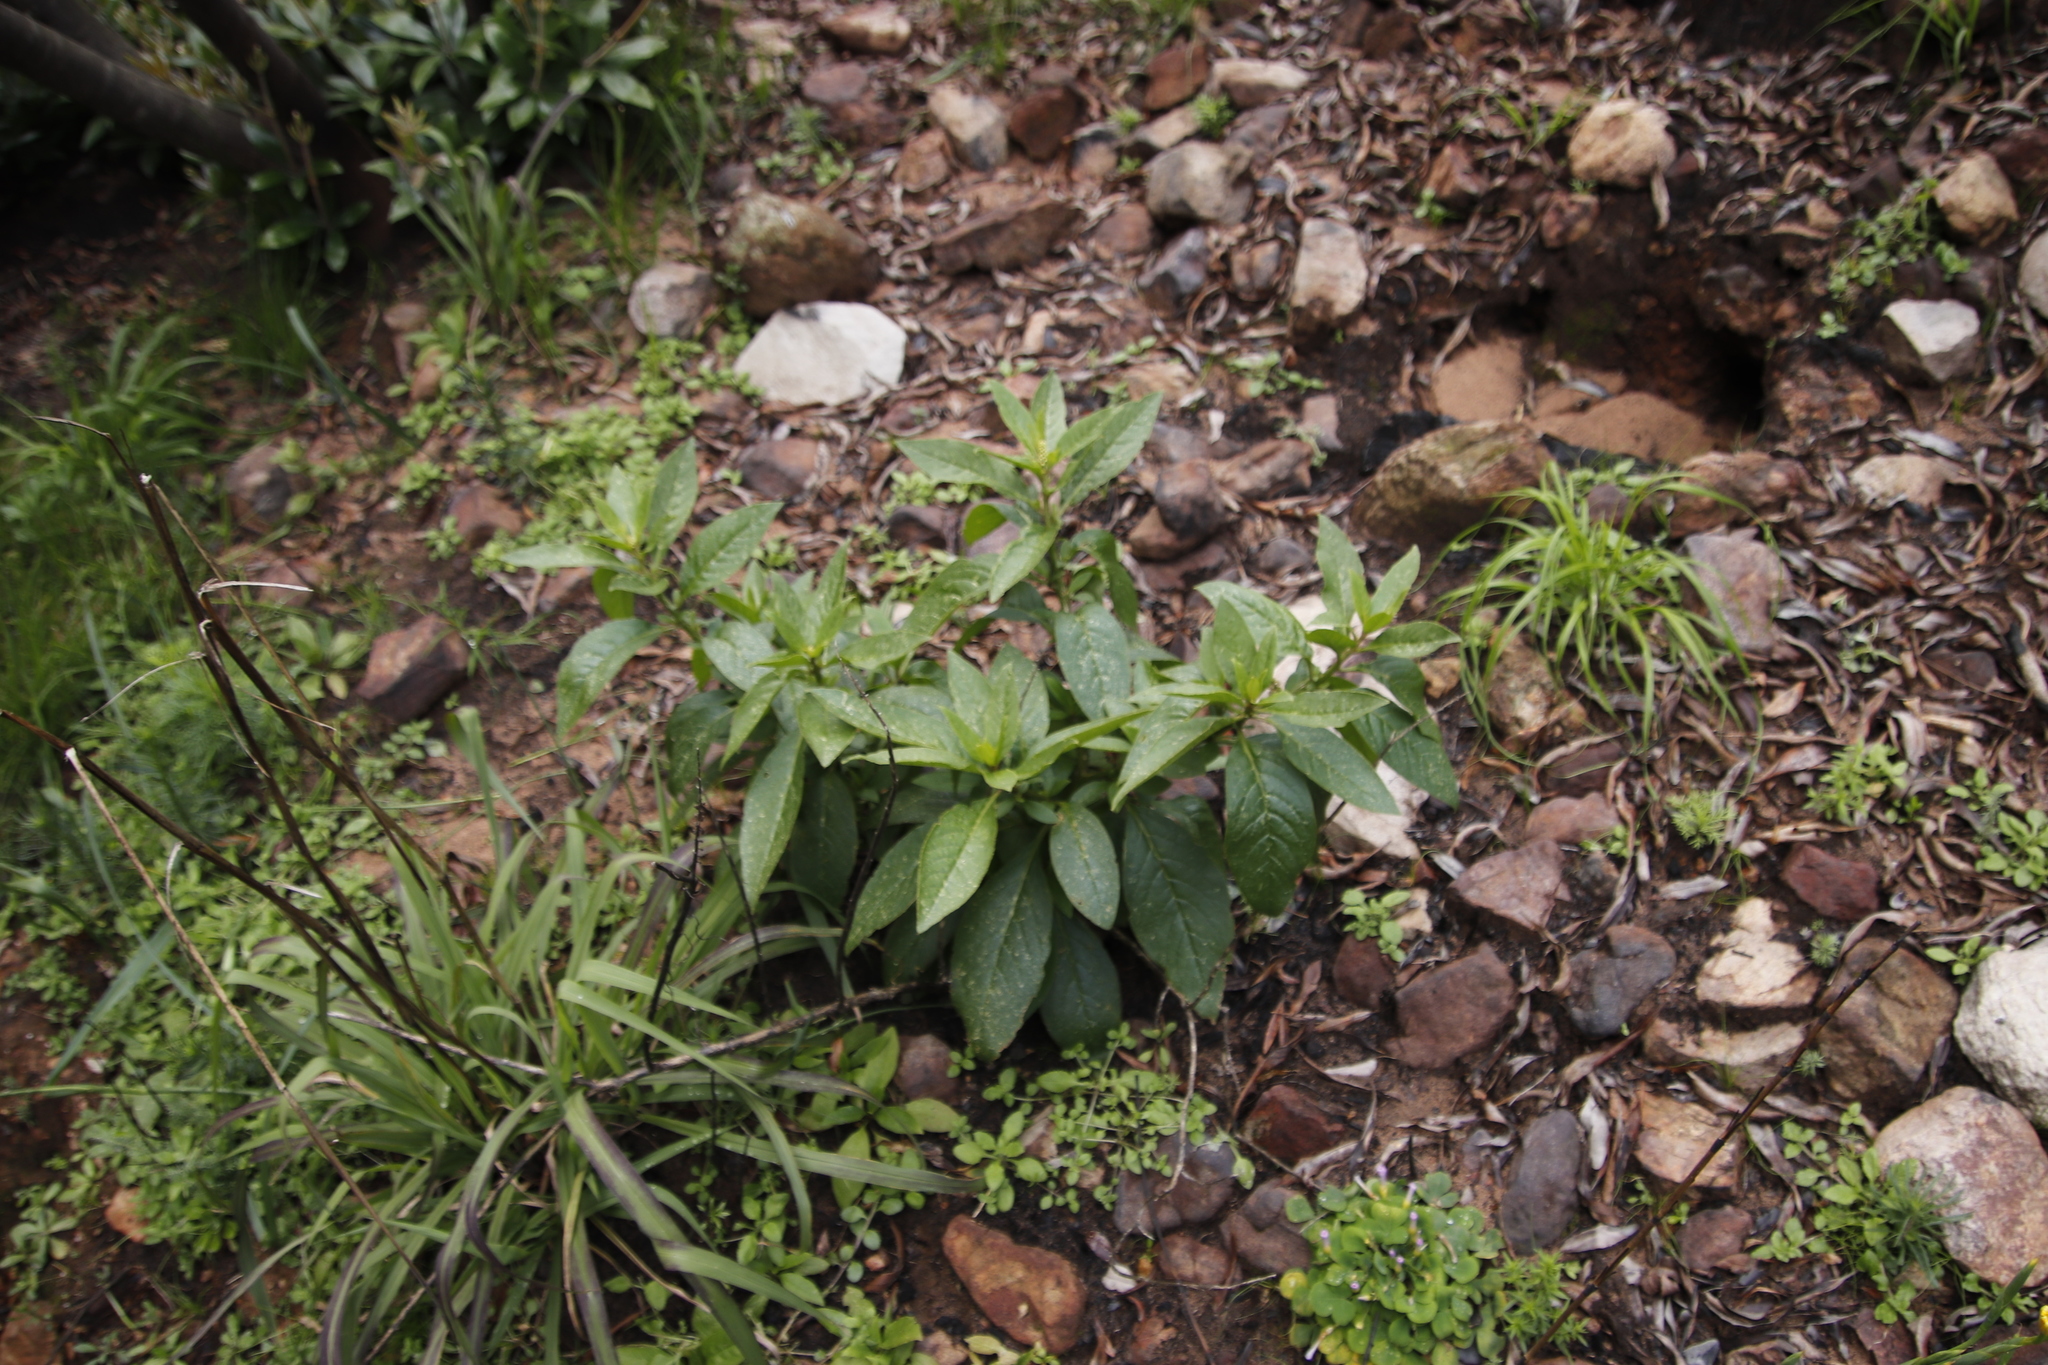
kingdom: Plantae
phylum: Tracheophyta
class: Magnoliopsida
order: Caryophyllales
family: Phytolaccaceae
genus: Phytolacca
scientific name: Phytolacca icosandra
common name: Button pokeweed
